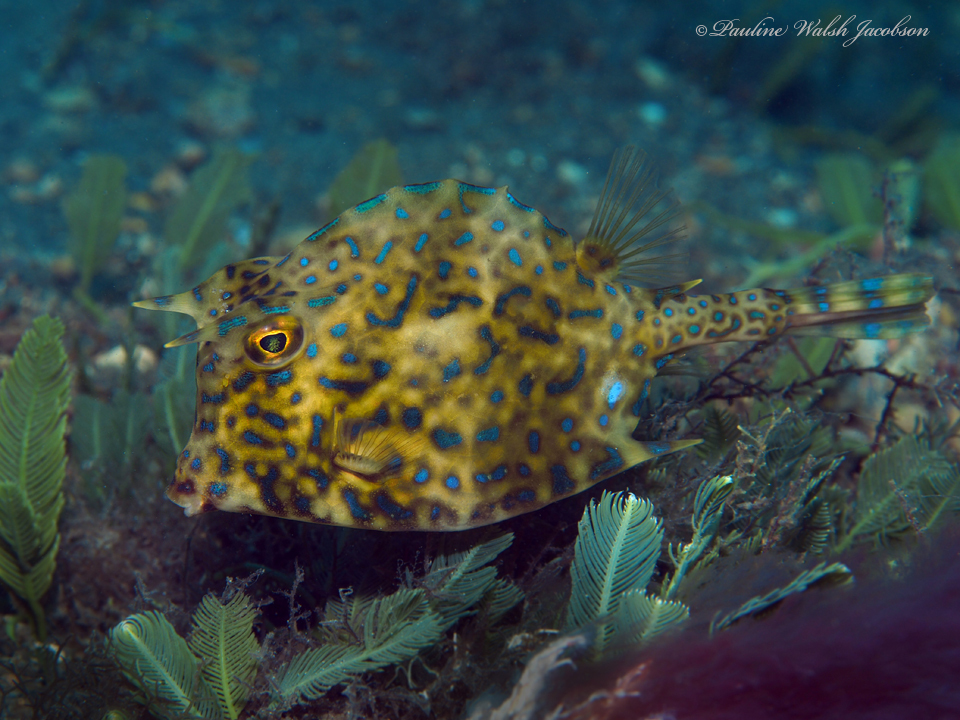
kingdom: Animalia
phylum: Chordata
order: Tetraodontiformes
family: Ostraciidae
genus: Acanthostracion
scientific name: Acanthostracion quadricornis
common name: Scrawled cowfish
